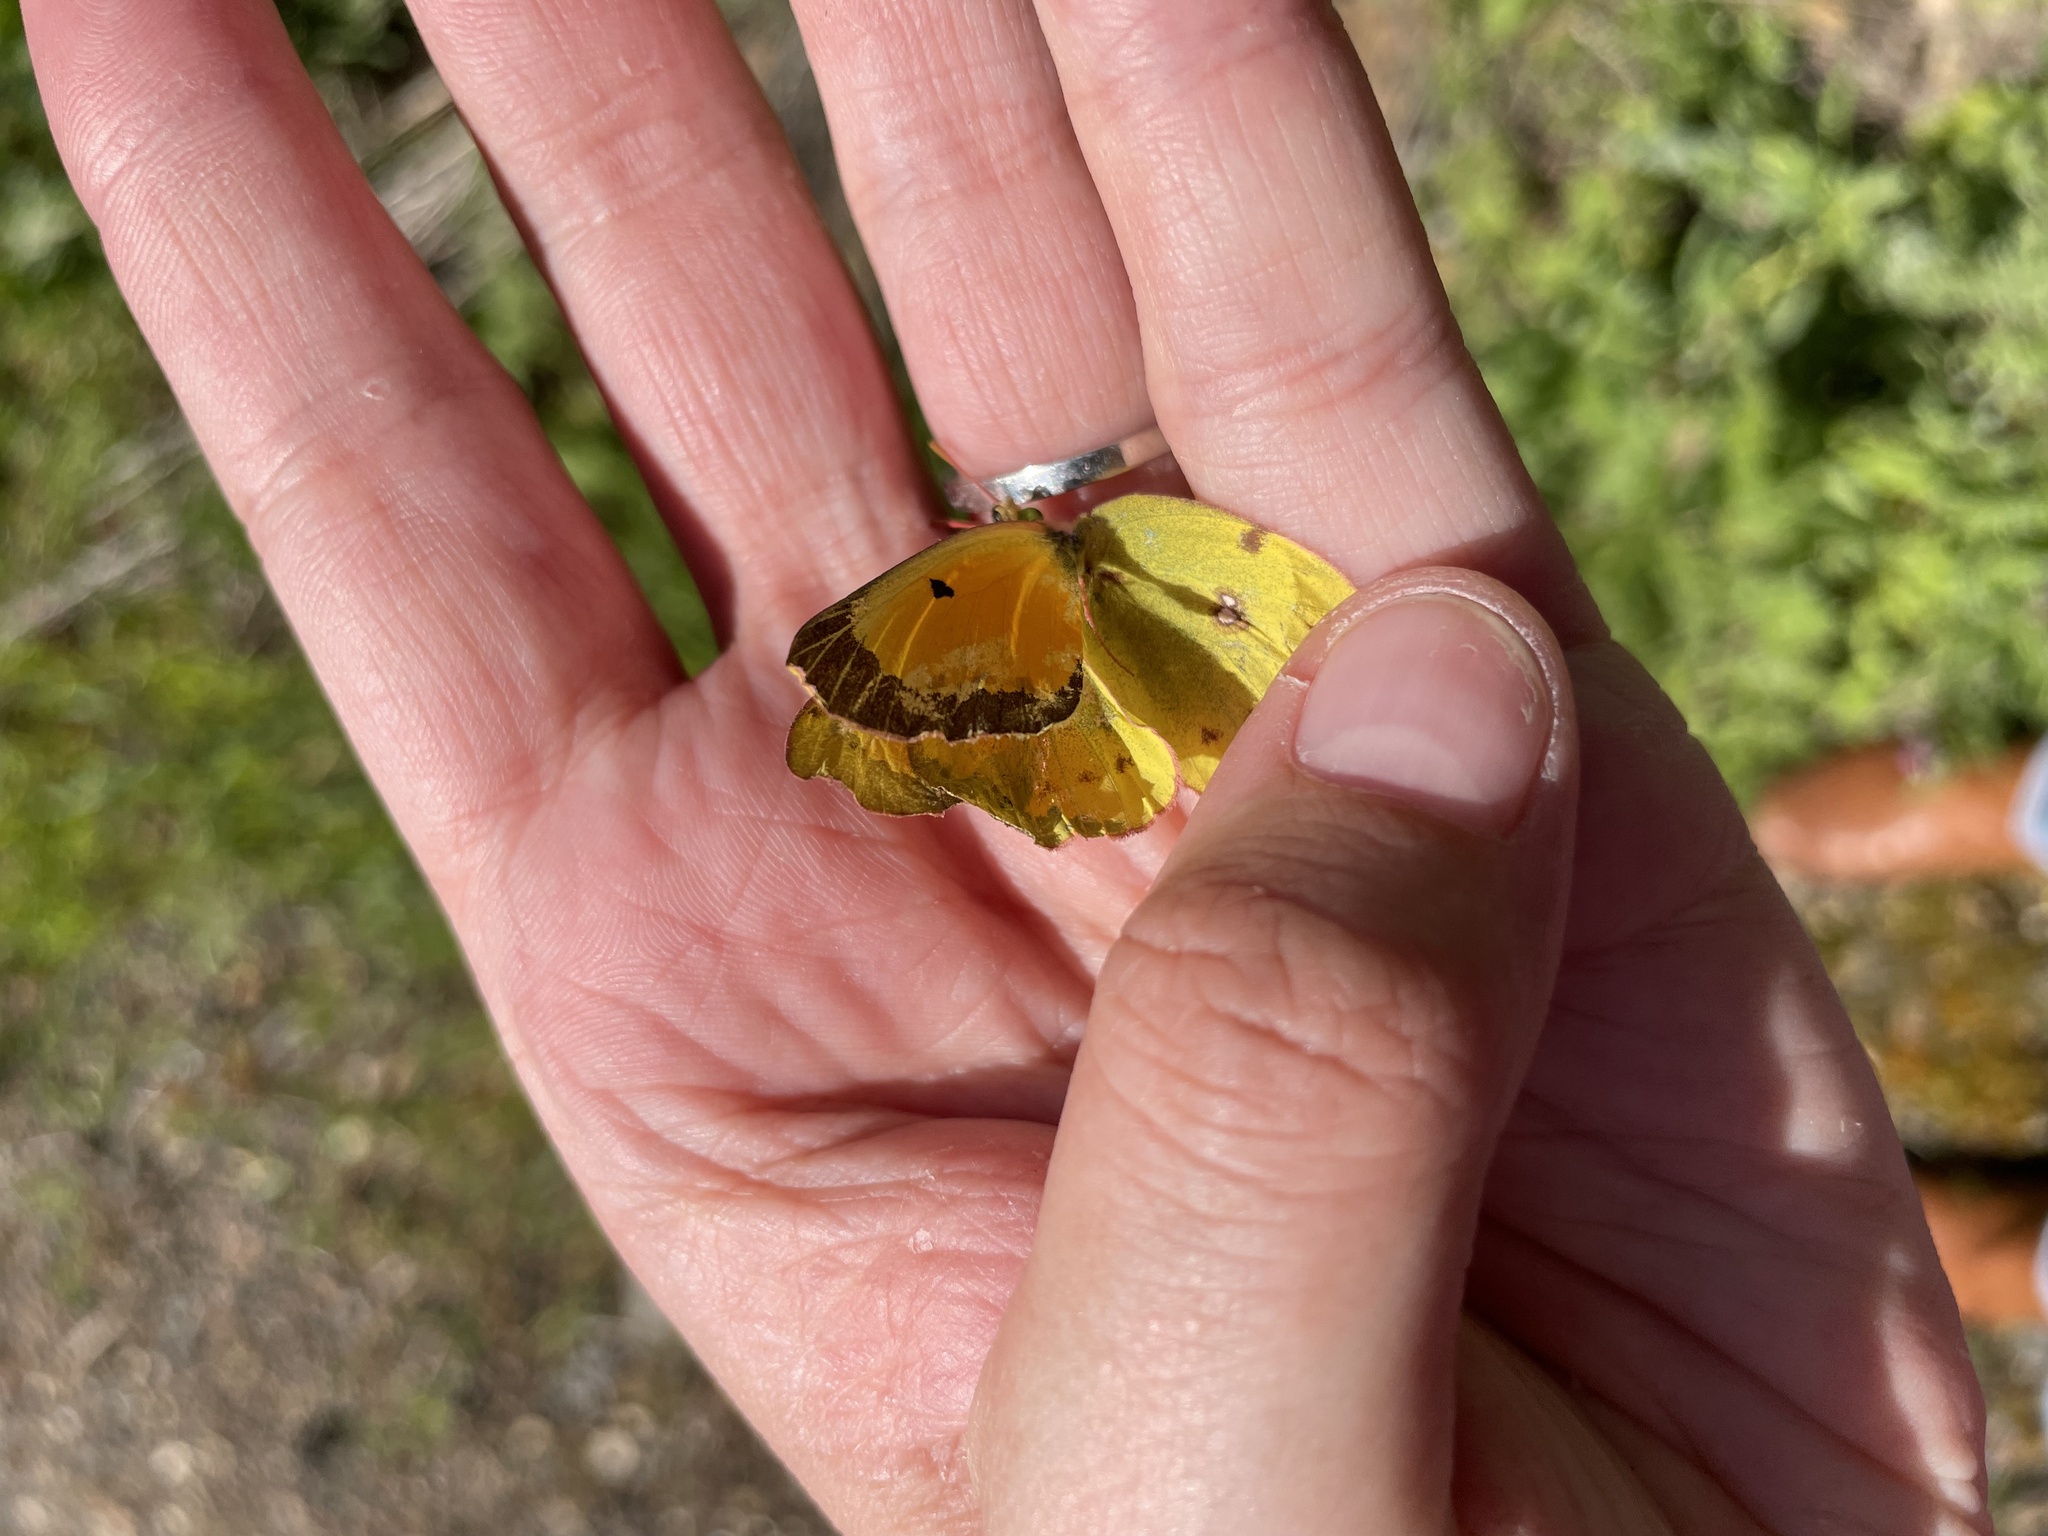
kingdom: Animalia
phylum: Arthropoda
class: Insecta
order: Lepidoptera
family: Pieridae
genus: Colias
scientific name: Colias eurytheme
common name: Alfalfa butterfly
